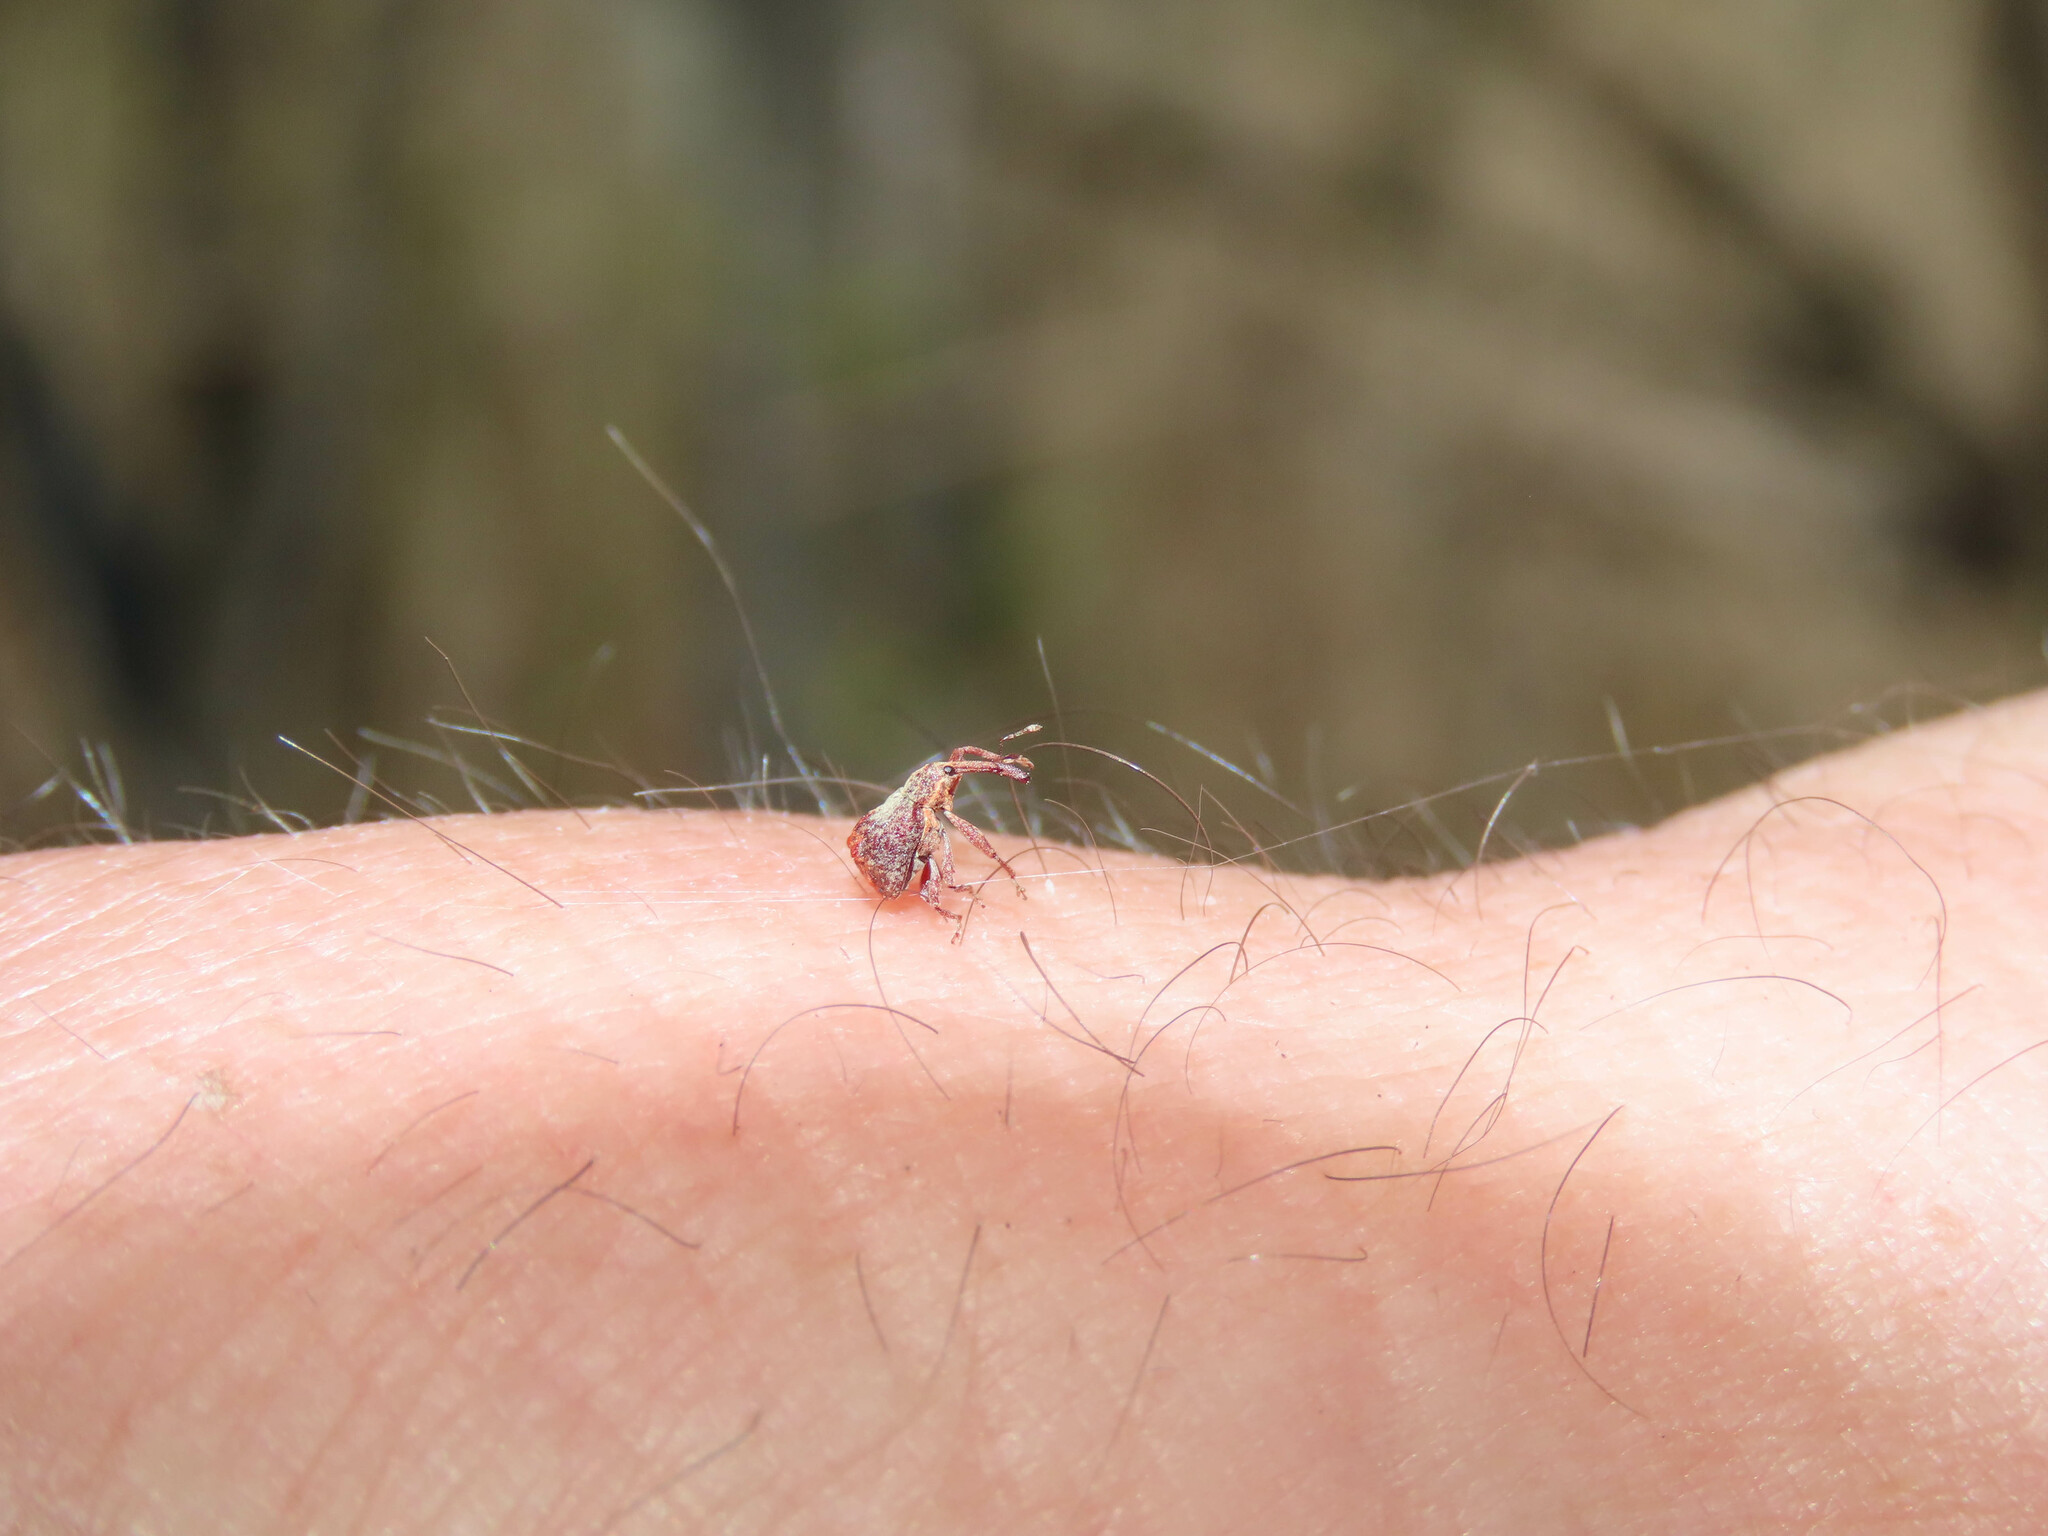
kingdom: Animalia
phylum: Arthropoda
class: Insecta
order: Coleoptera
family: Curculionidae
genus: Anthonomus
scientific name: Anthonomus quadrigibbus
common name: Apple curculio
